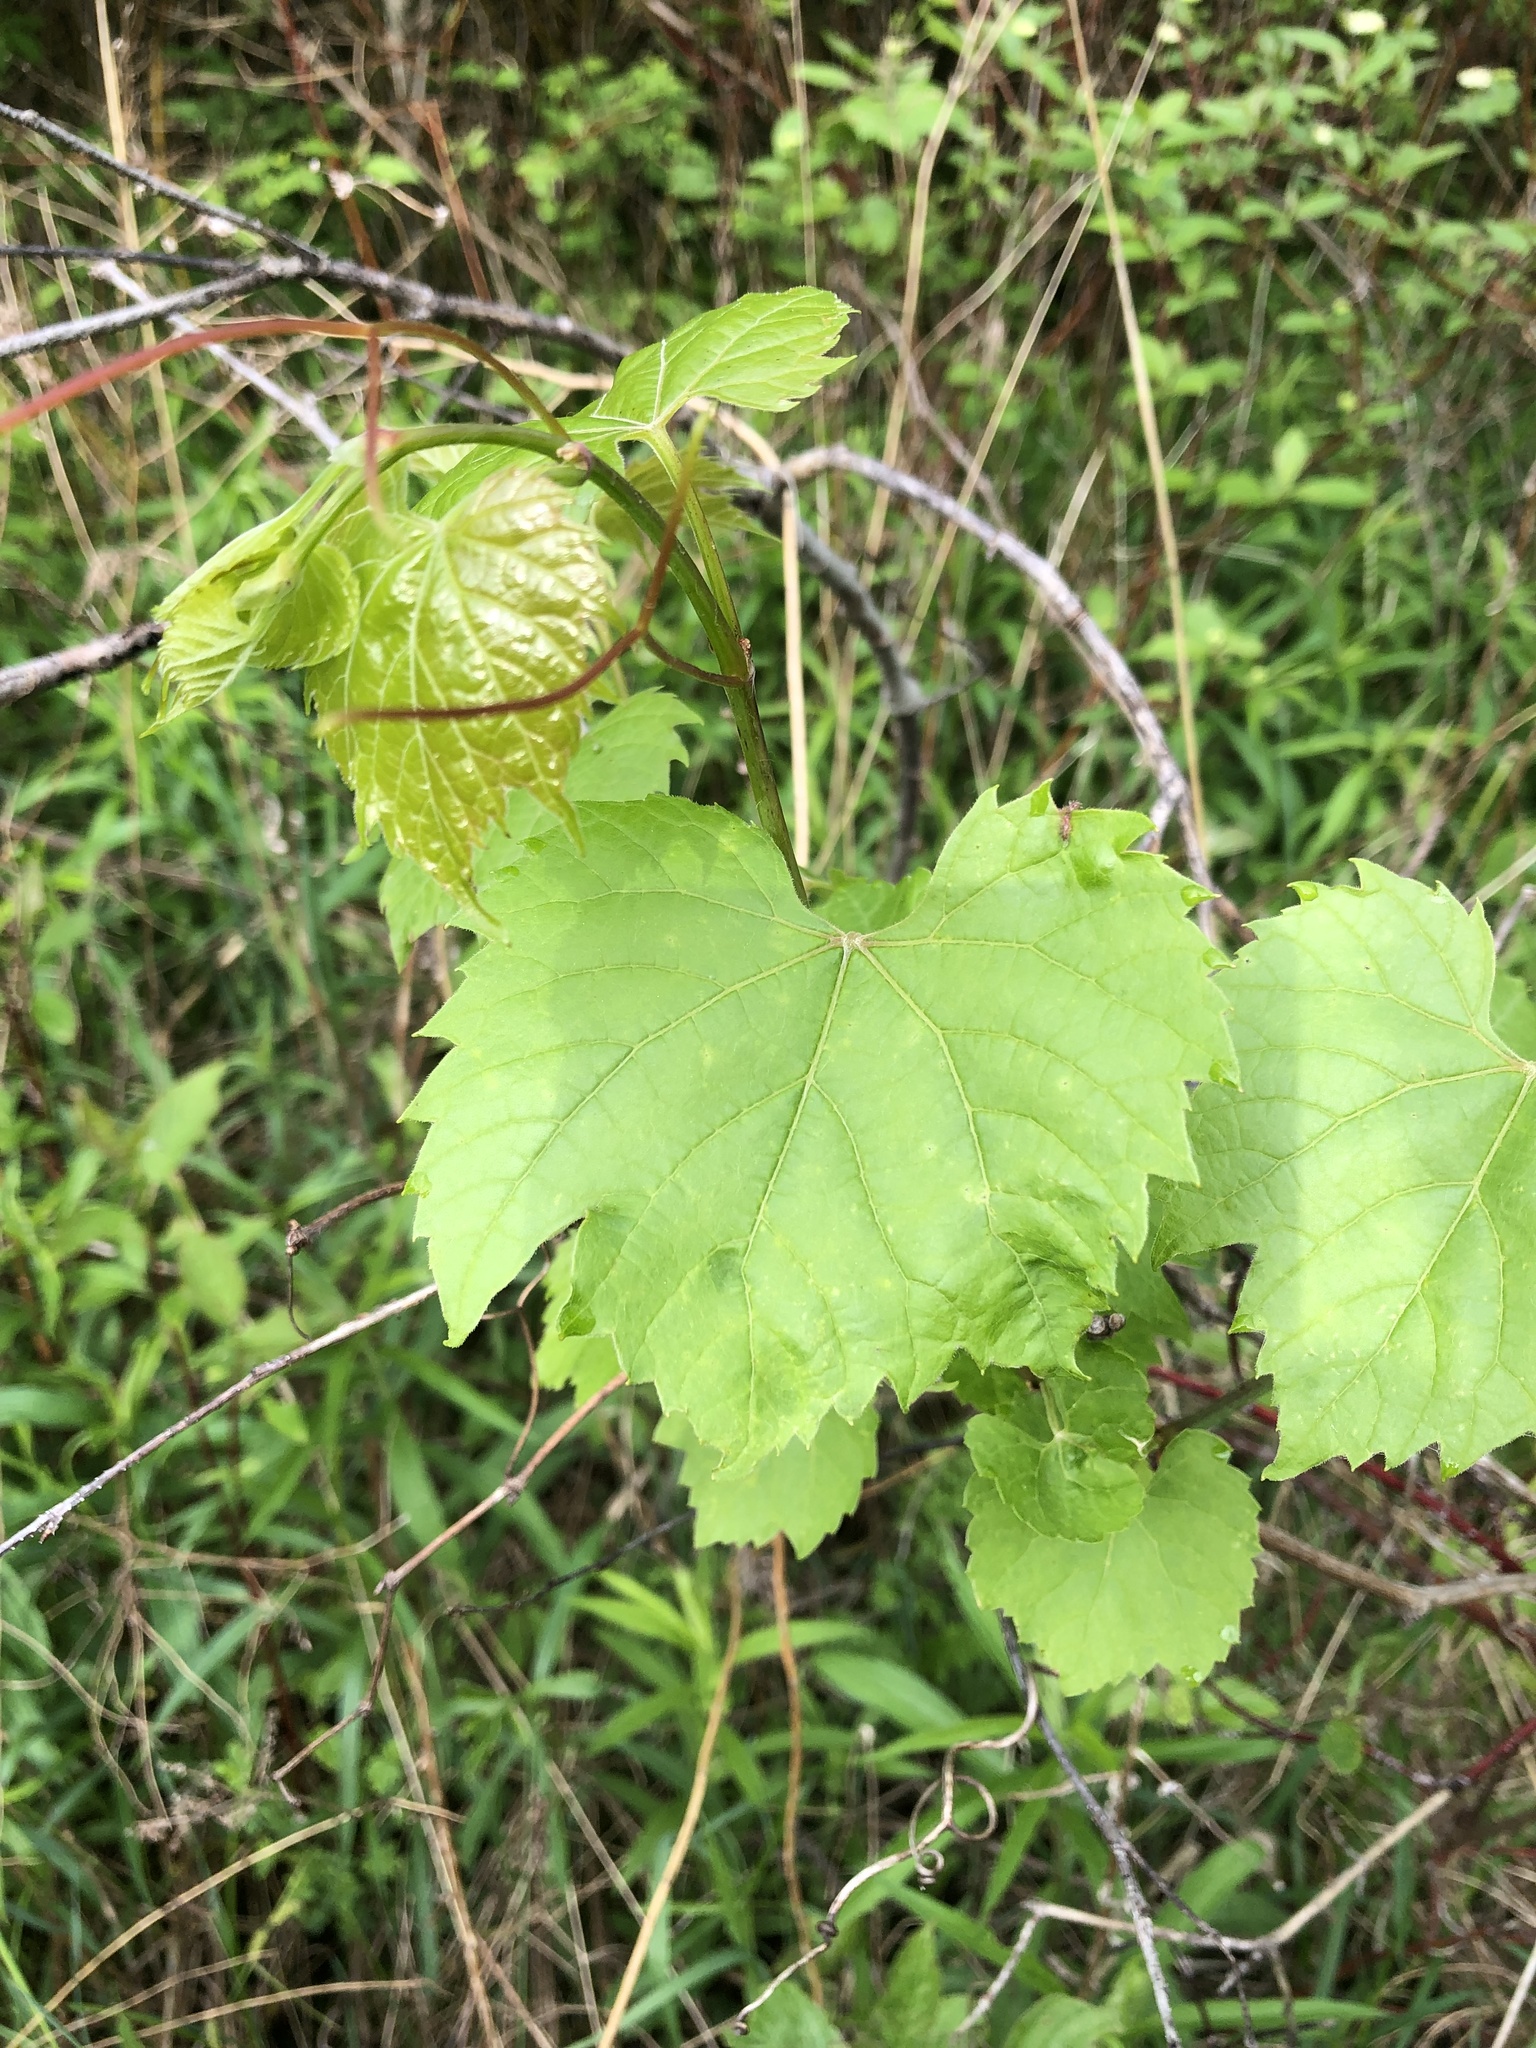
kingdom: Plantae
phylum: Tracheophyta
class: Magnoliopsida
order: Vitales
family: Vitaceae
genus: Vitis
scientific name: Vitis riparia
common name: Frost grape
